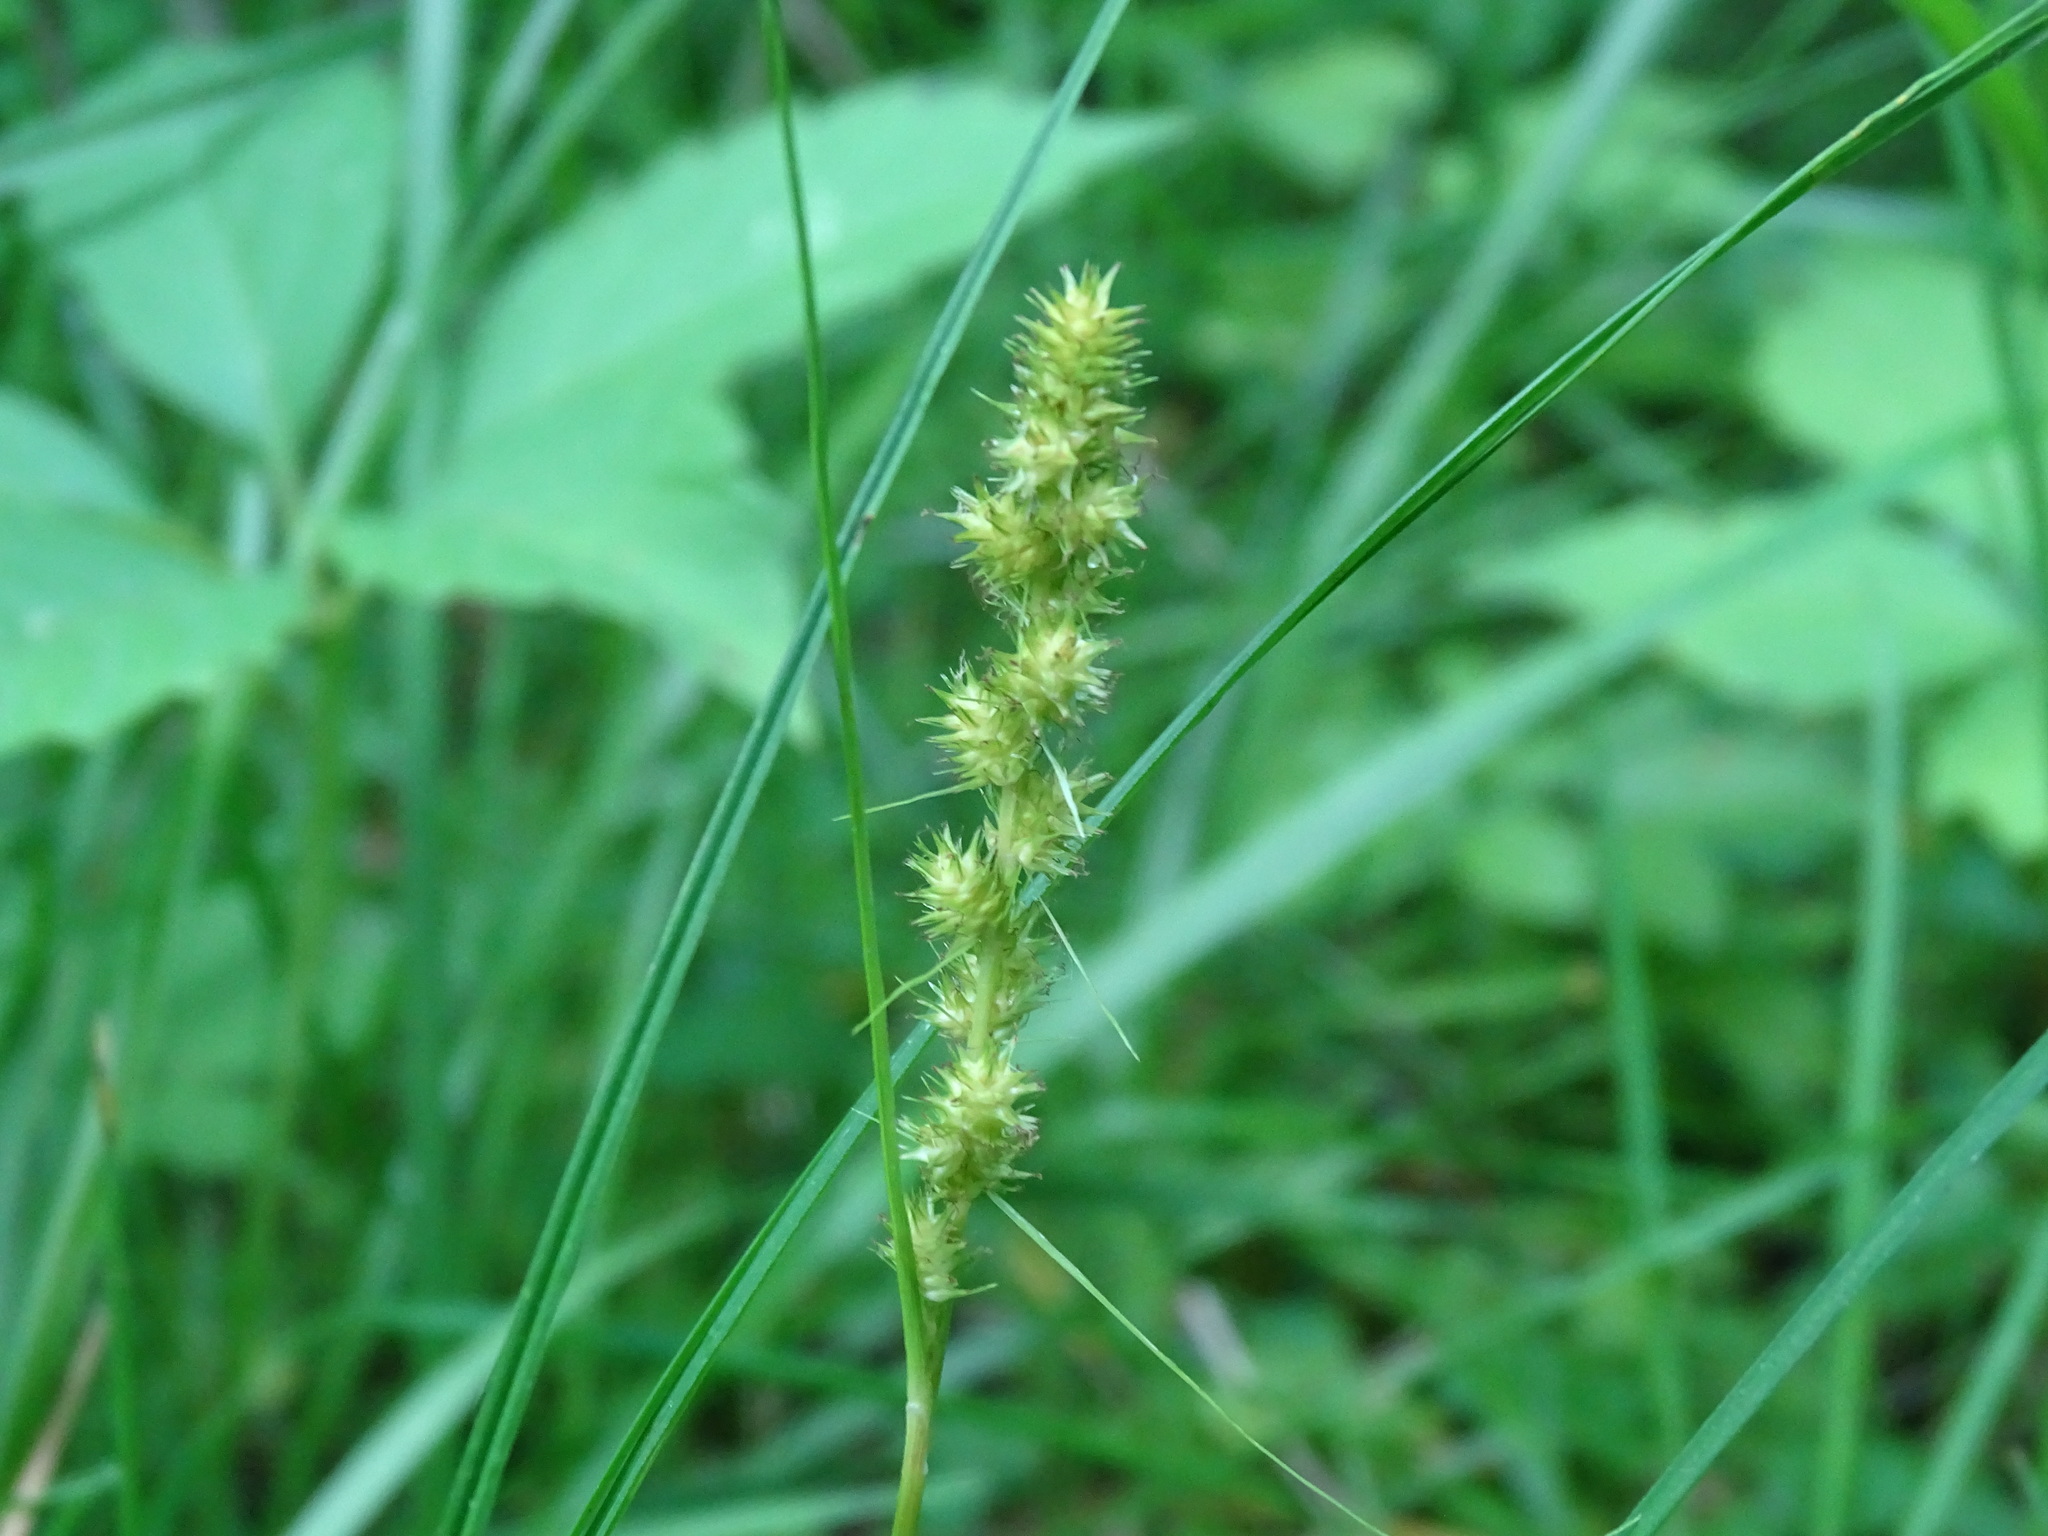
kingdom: Plantae
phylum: Tracheophyta
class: Liliopsida
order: Poales
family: Cyperaceae
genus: Carex
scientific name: Carex vulpinoidea
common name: American fox-sedge
